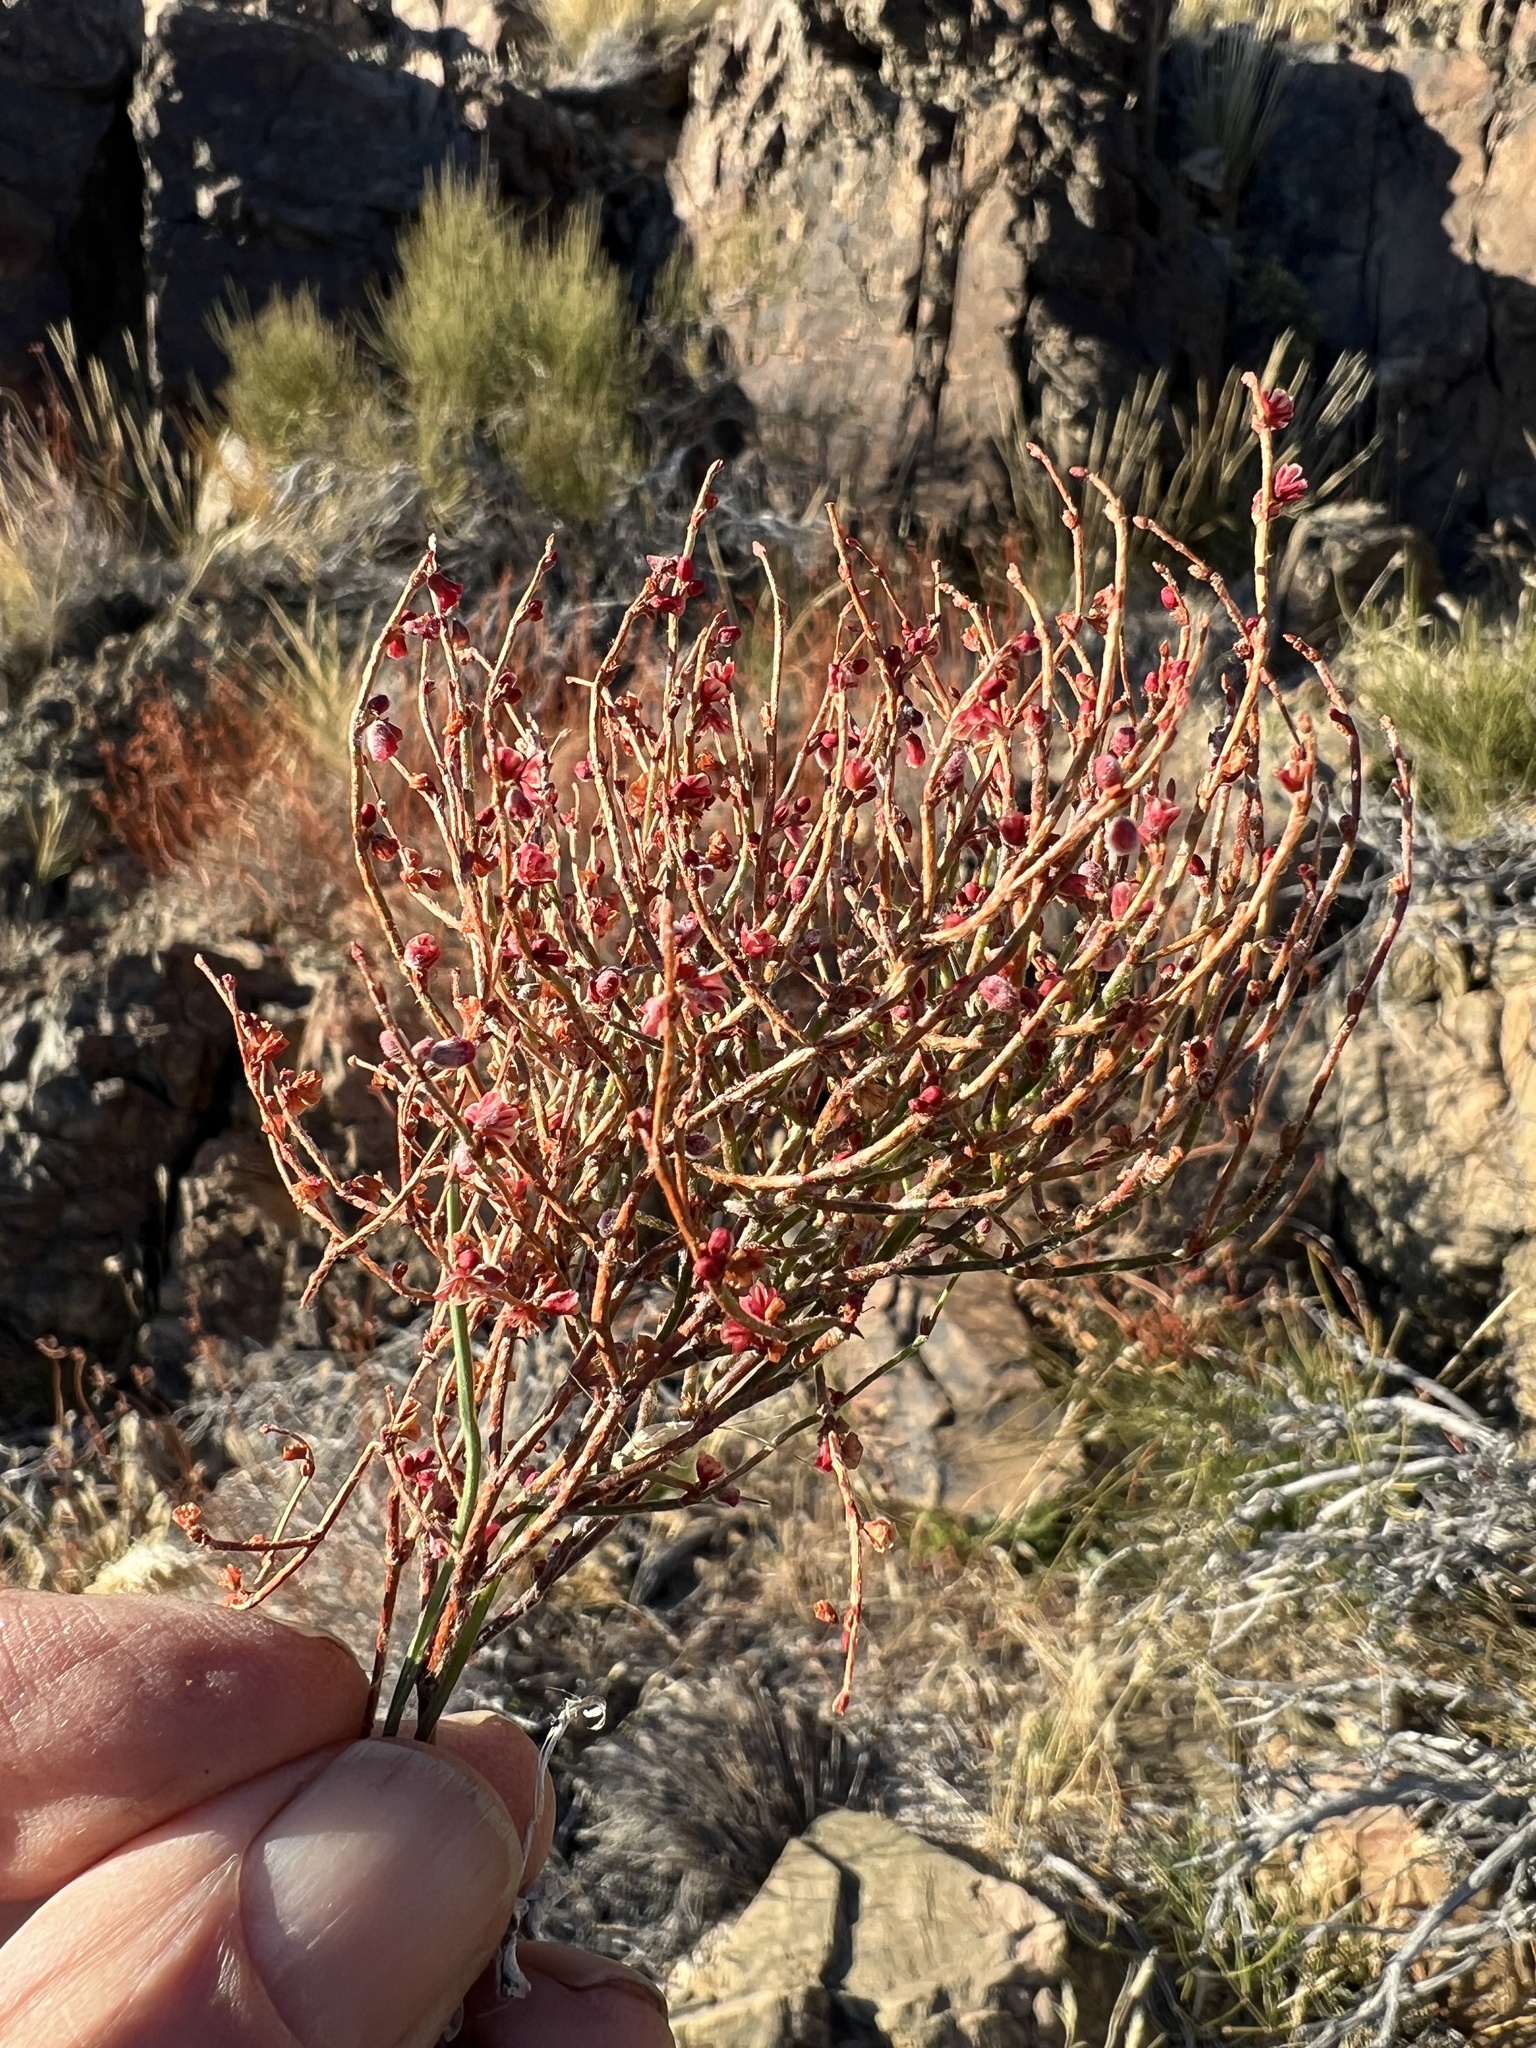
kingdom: Plantae
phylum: Tracheophyta
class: Magnoliopsida
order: Caryophyllales
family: Polygonaceae
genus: Eriogonum
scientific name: Eriogonum nidularium
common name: Bird's-nest wild buckwheat
